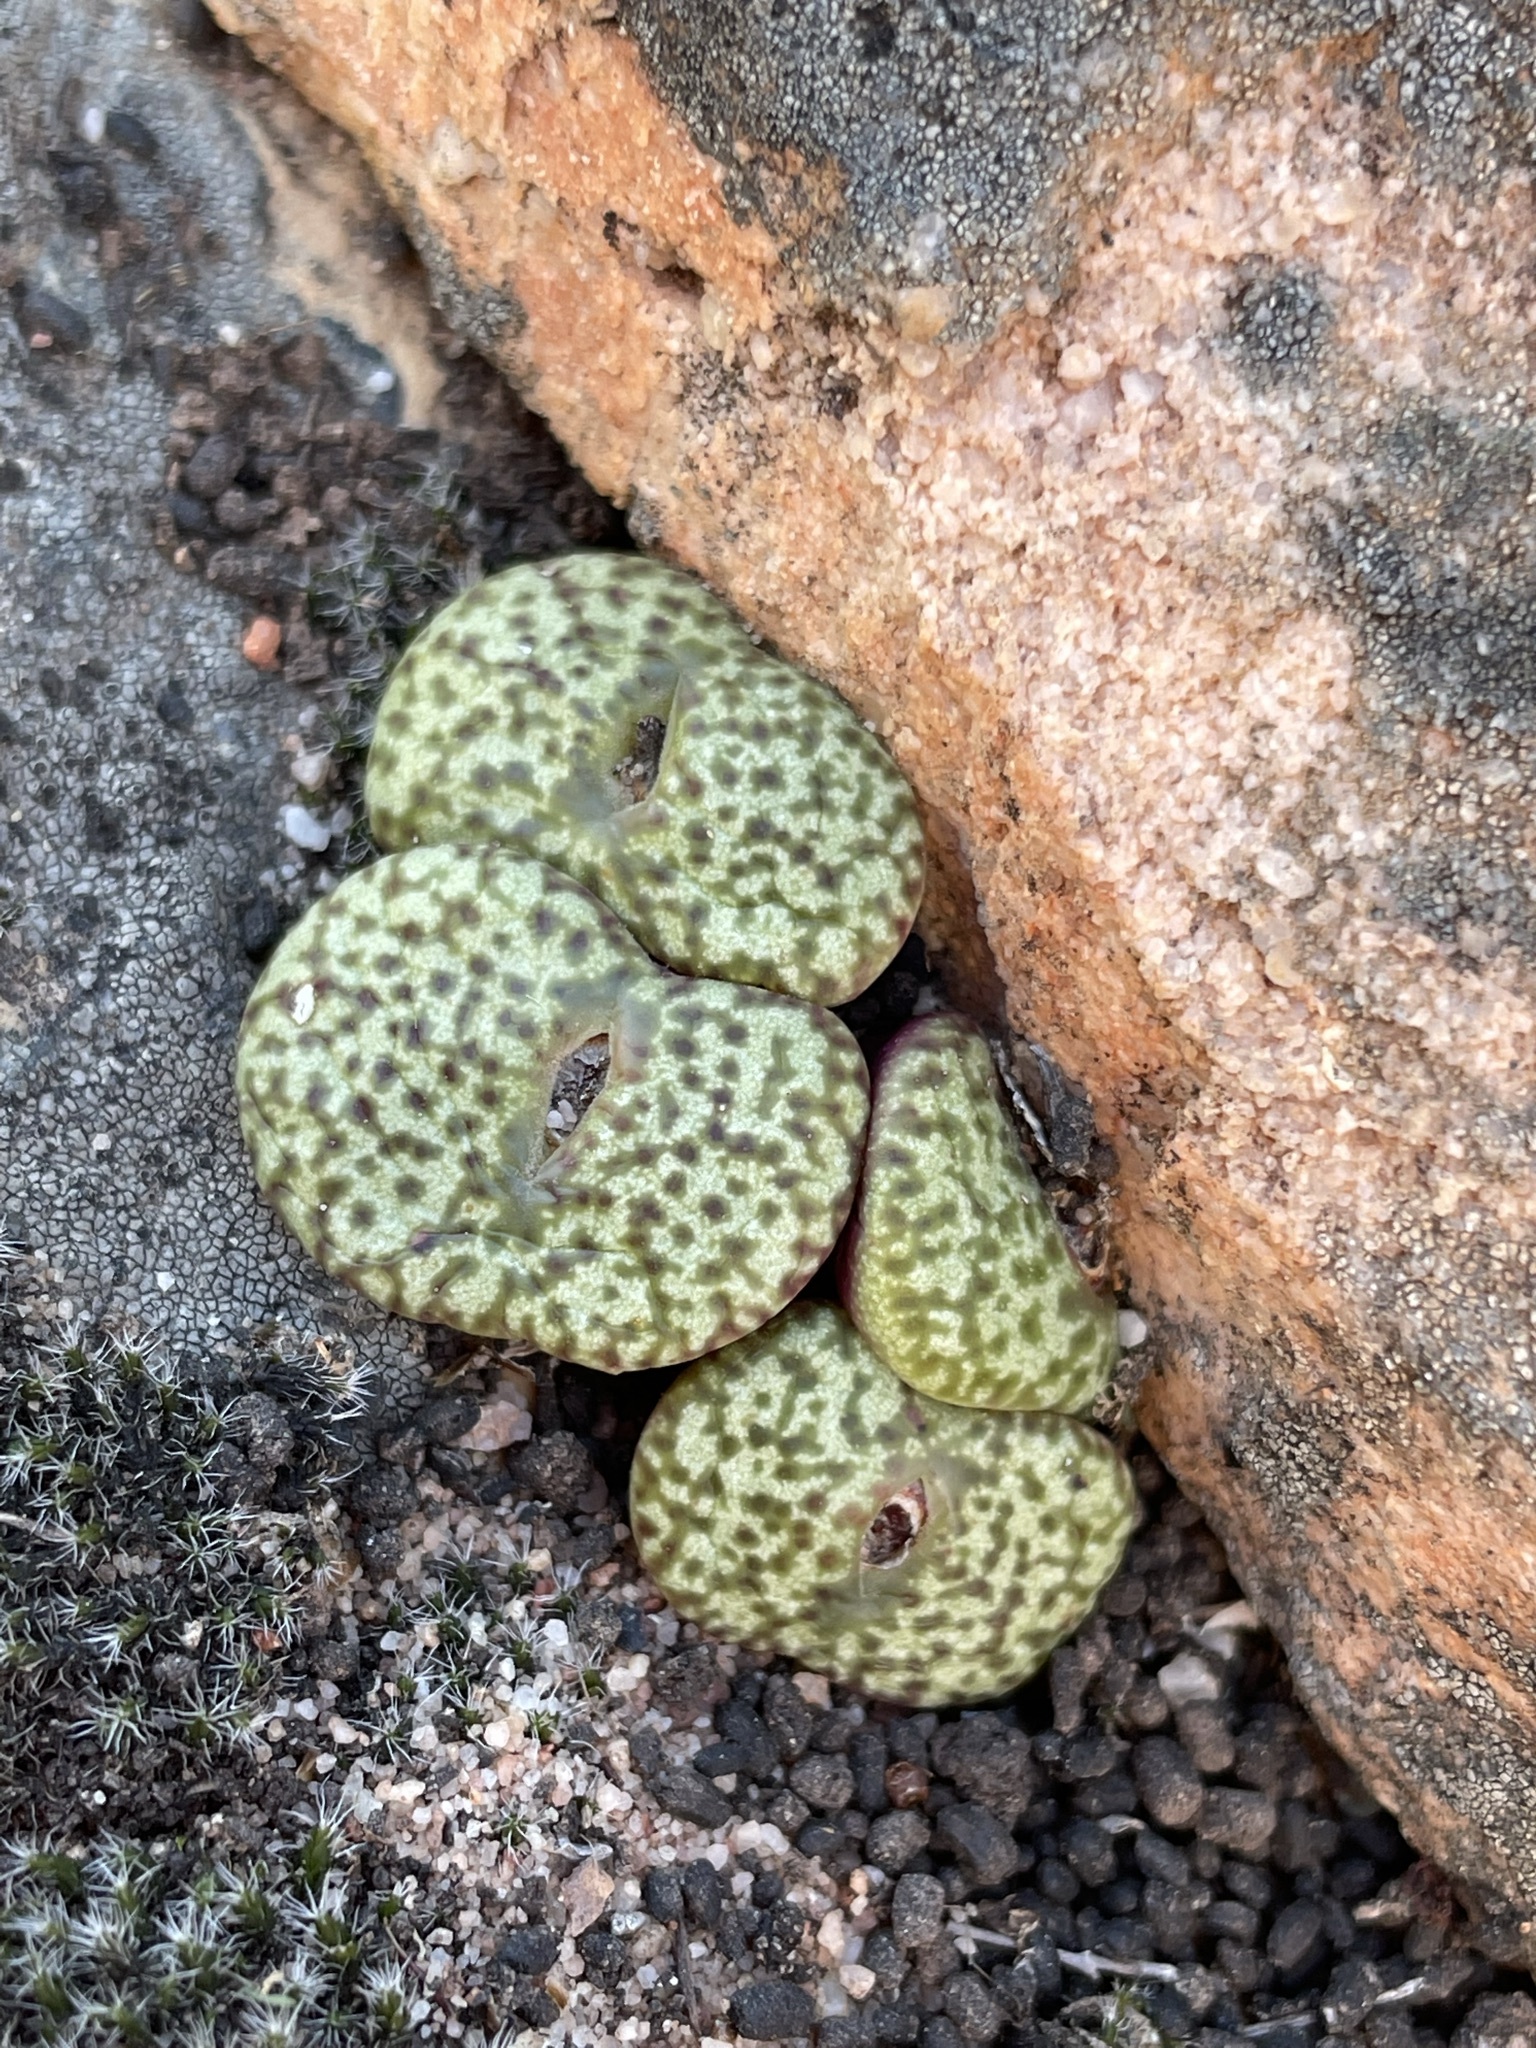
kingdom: Plantae
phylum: Tracheophyta
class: Magnoliopsida
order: Caryophyllales
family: Aizoaceae
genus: Conophytum
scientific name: Conophytum obcordellum
